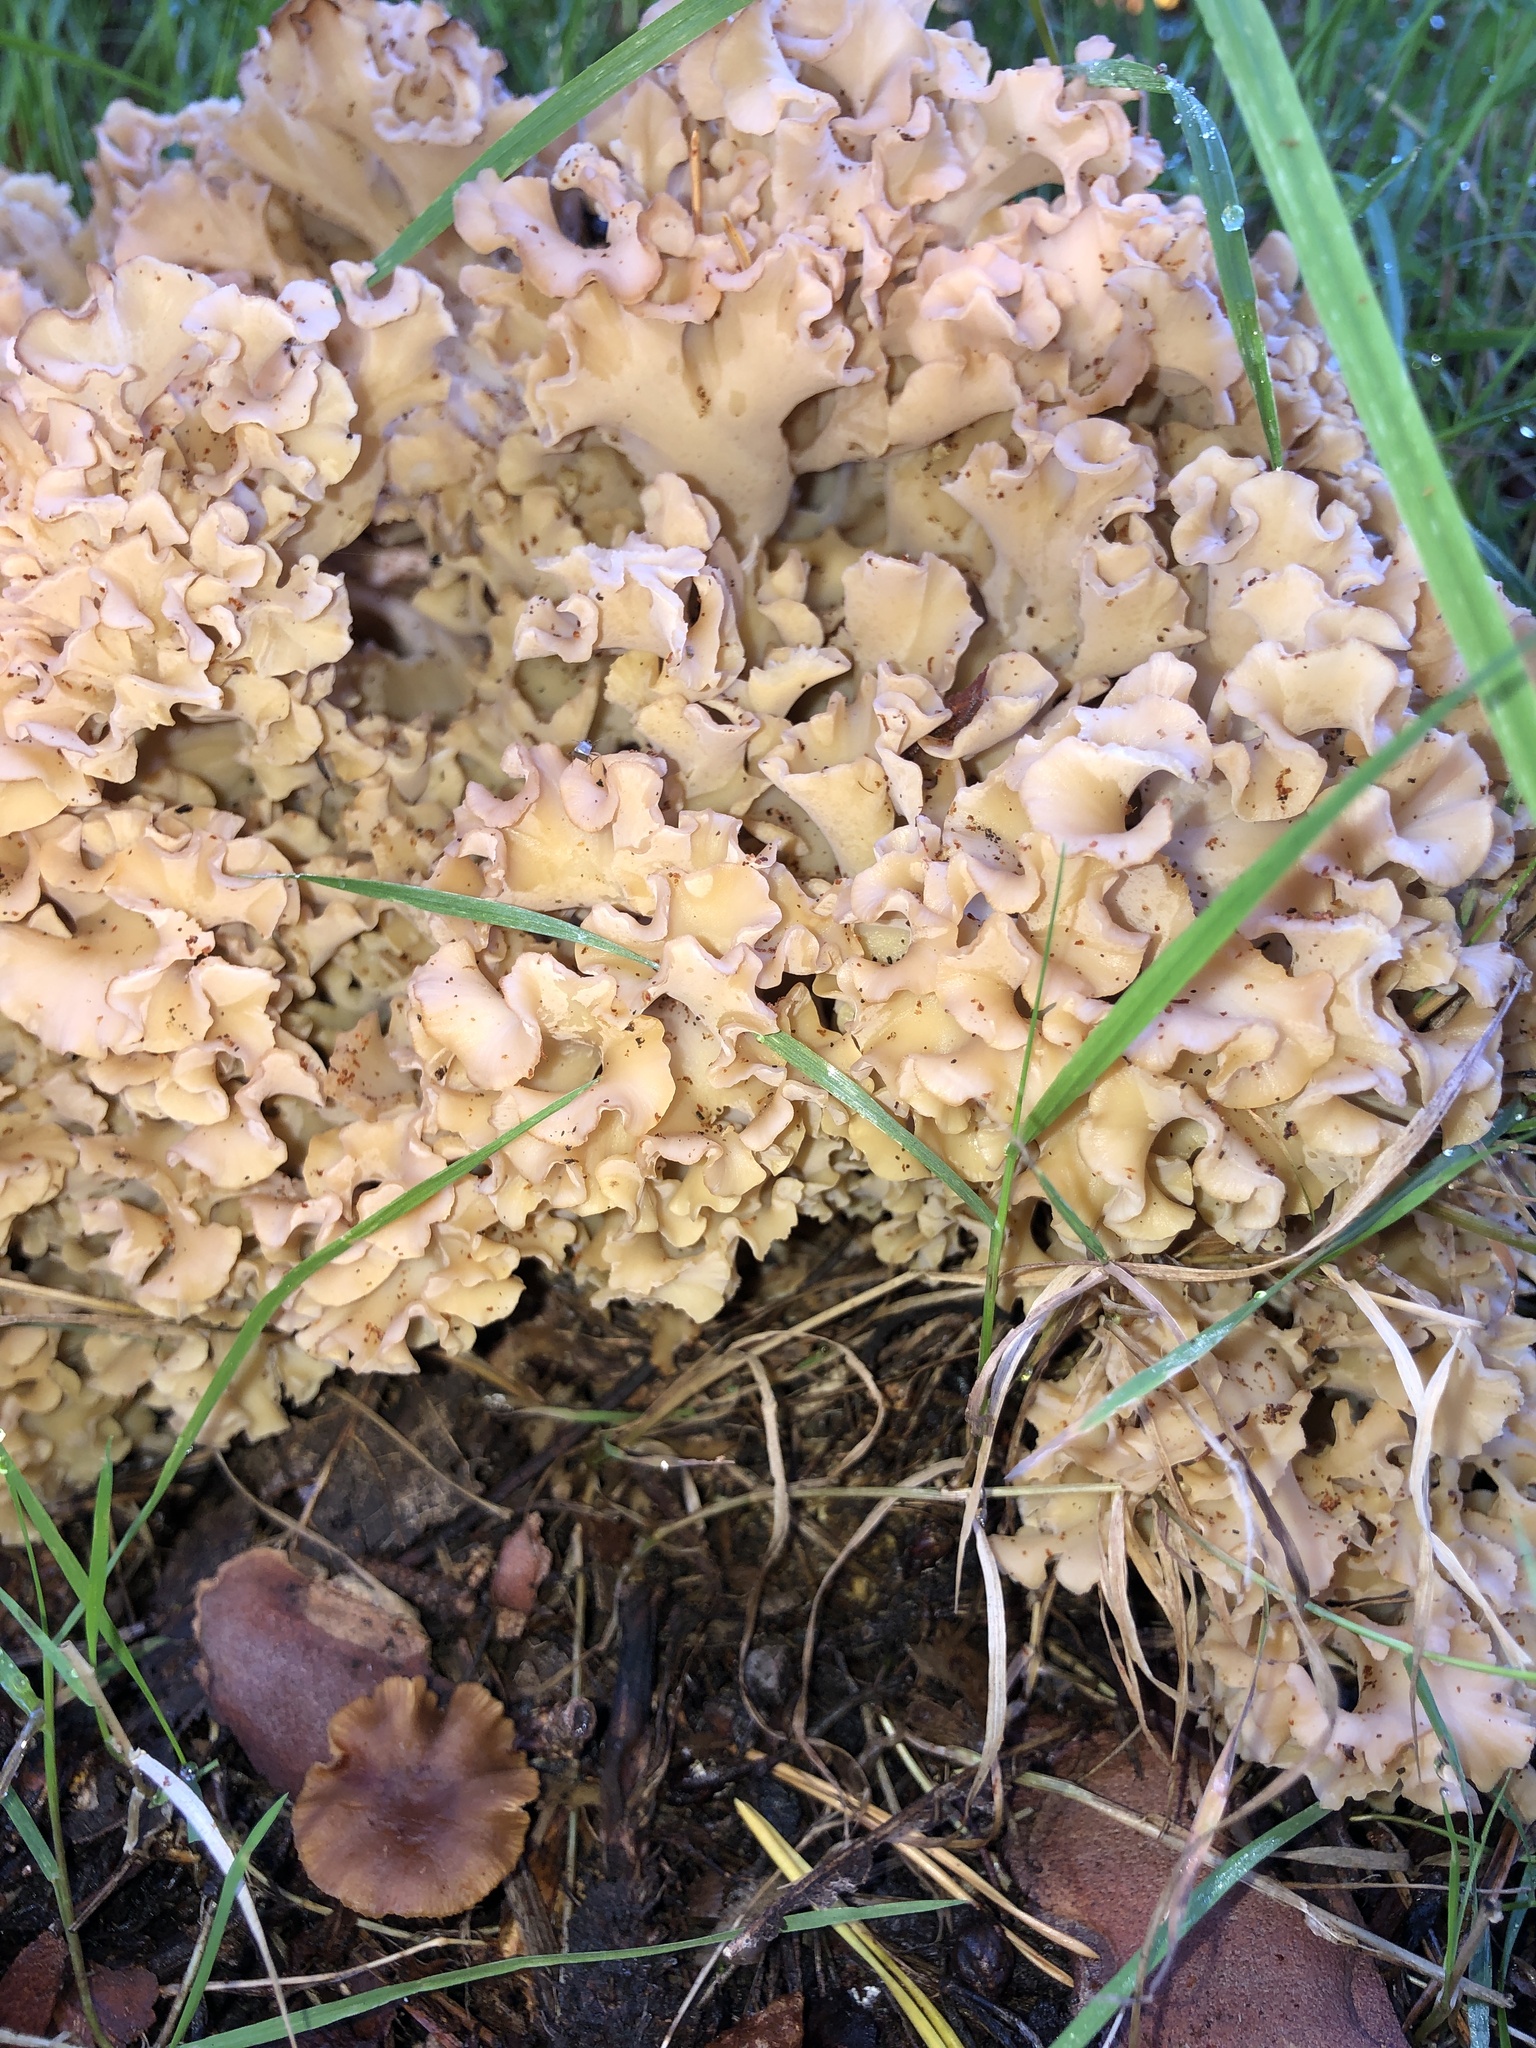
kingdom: Fungi
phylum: Basidiomycota
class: Agaricomycetes
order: Polyporales
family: Sparassidaceae
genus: Sparassis
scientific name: Sparassis crispa
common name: Brain fungus
